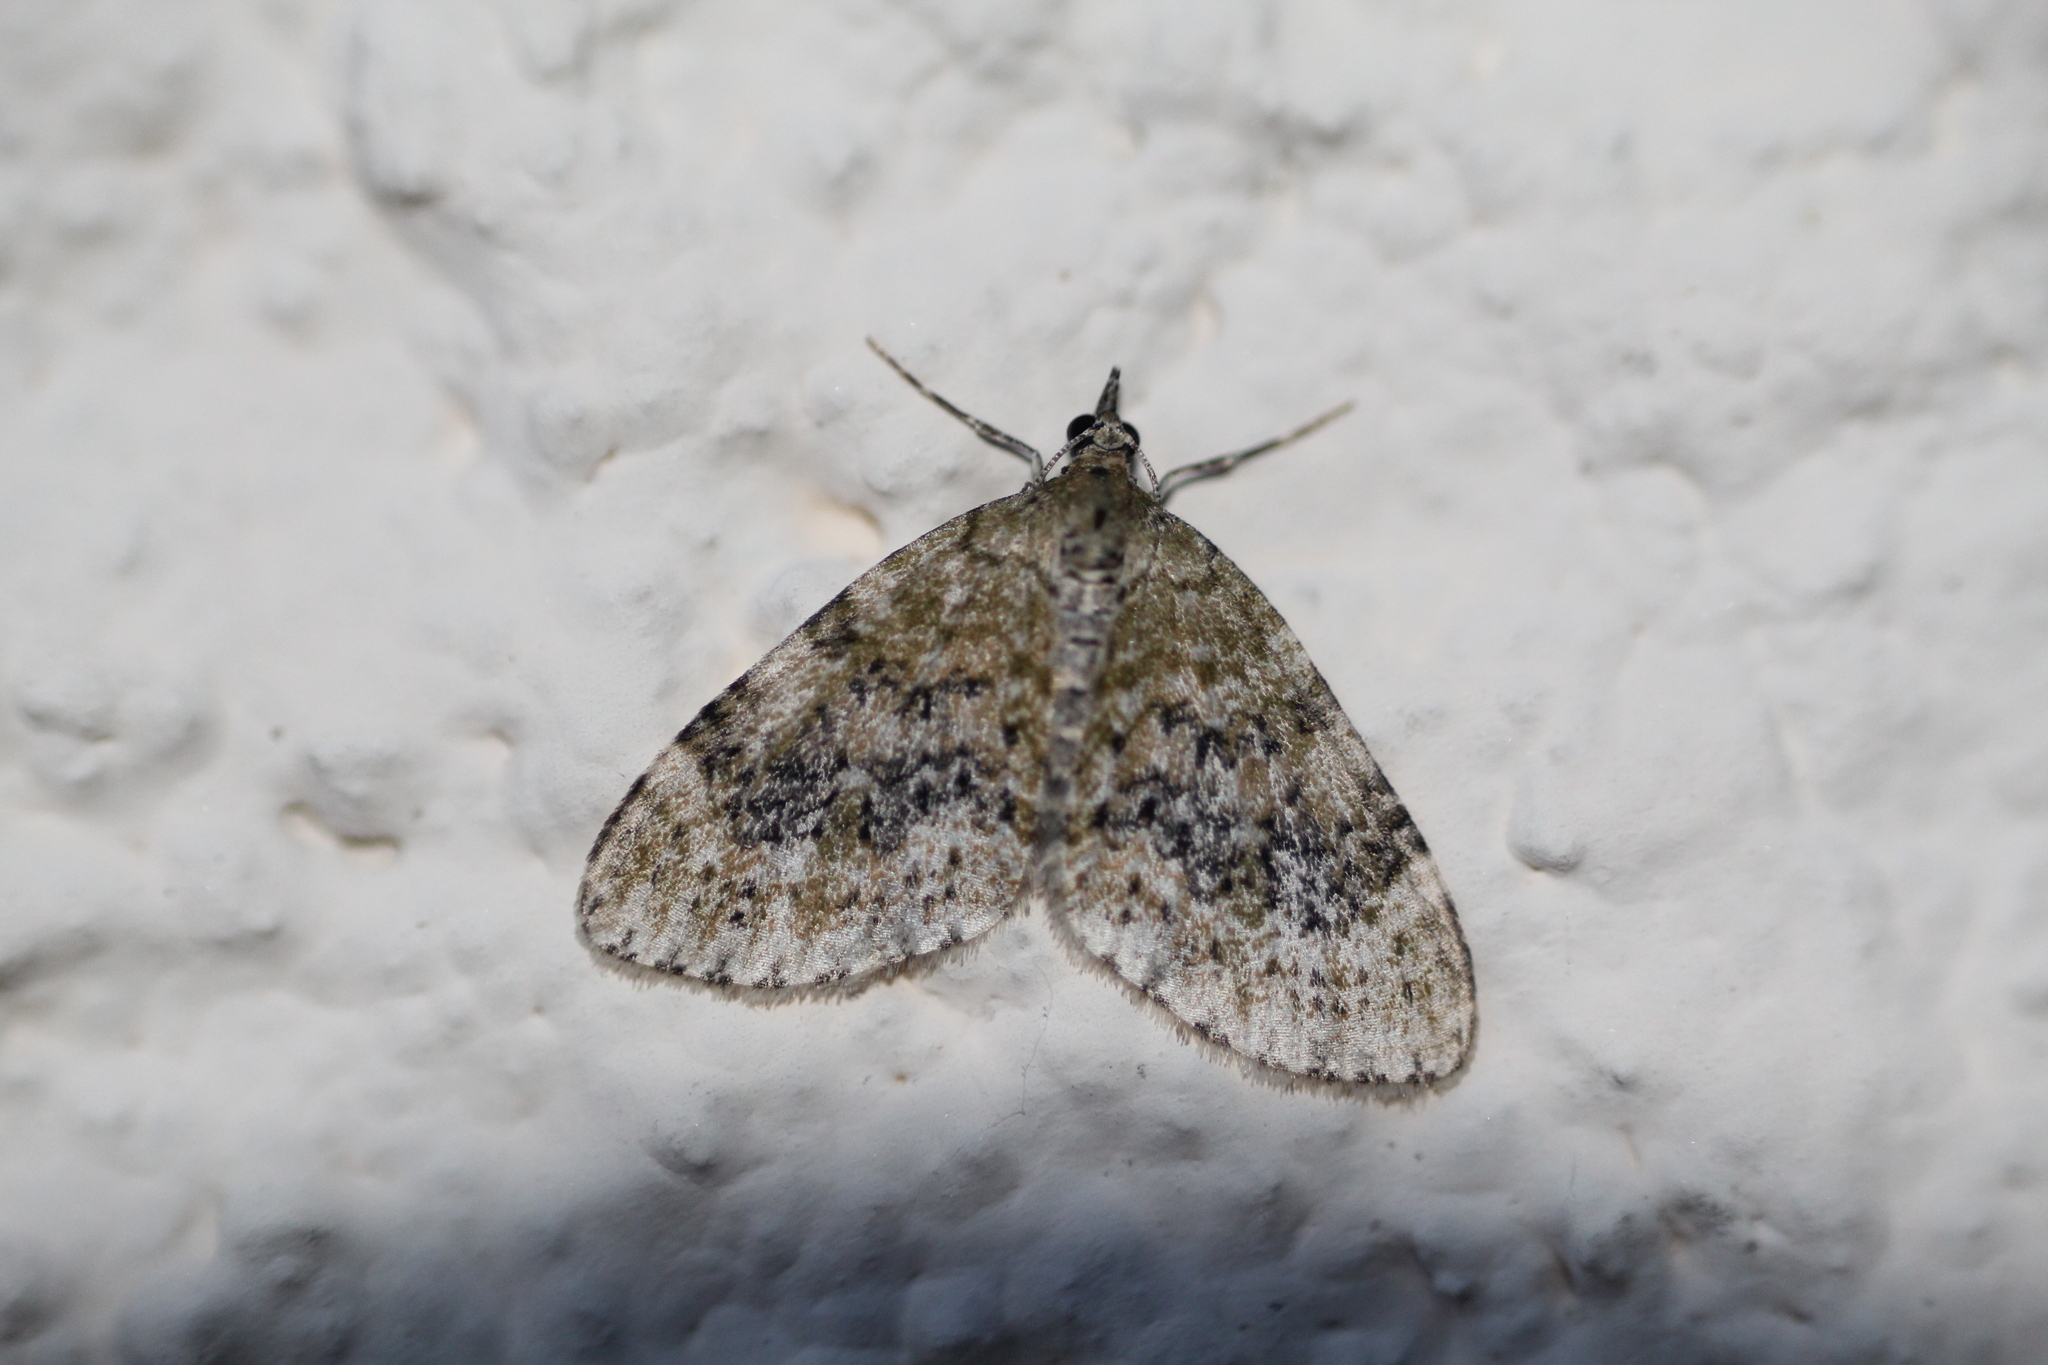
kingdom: Animalia
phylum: Arthropoda
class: Insecta
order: Lepidoptera
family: Geometridae
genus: Acasis
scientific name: Acasis viretata
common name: Yellow-barred brindle
